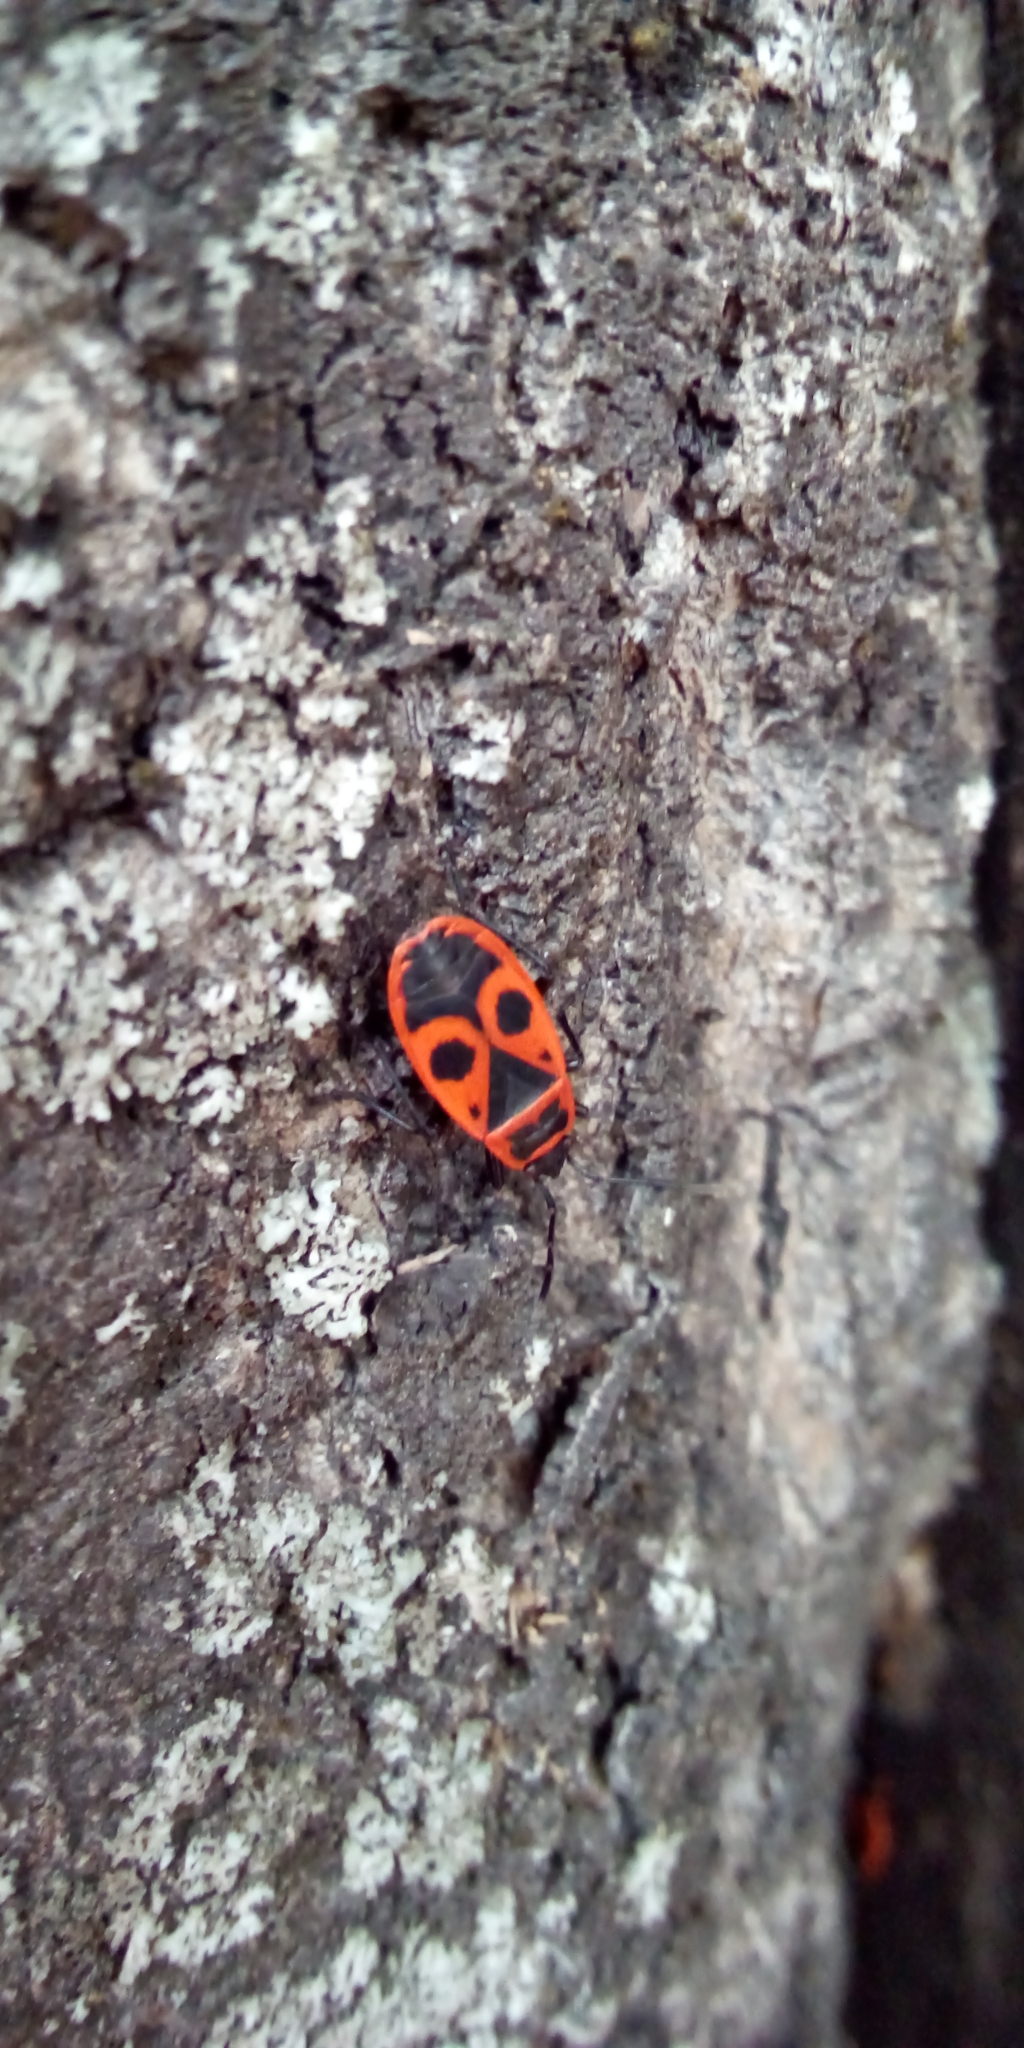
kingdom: Animalia
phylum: Arthropoda
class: Insecta
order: Hemiptera
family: Pyrrhocoridae
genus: Pyrrhocoris
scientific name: Pyrrhocoris apterus
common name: Firebug
